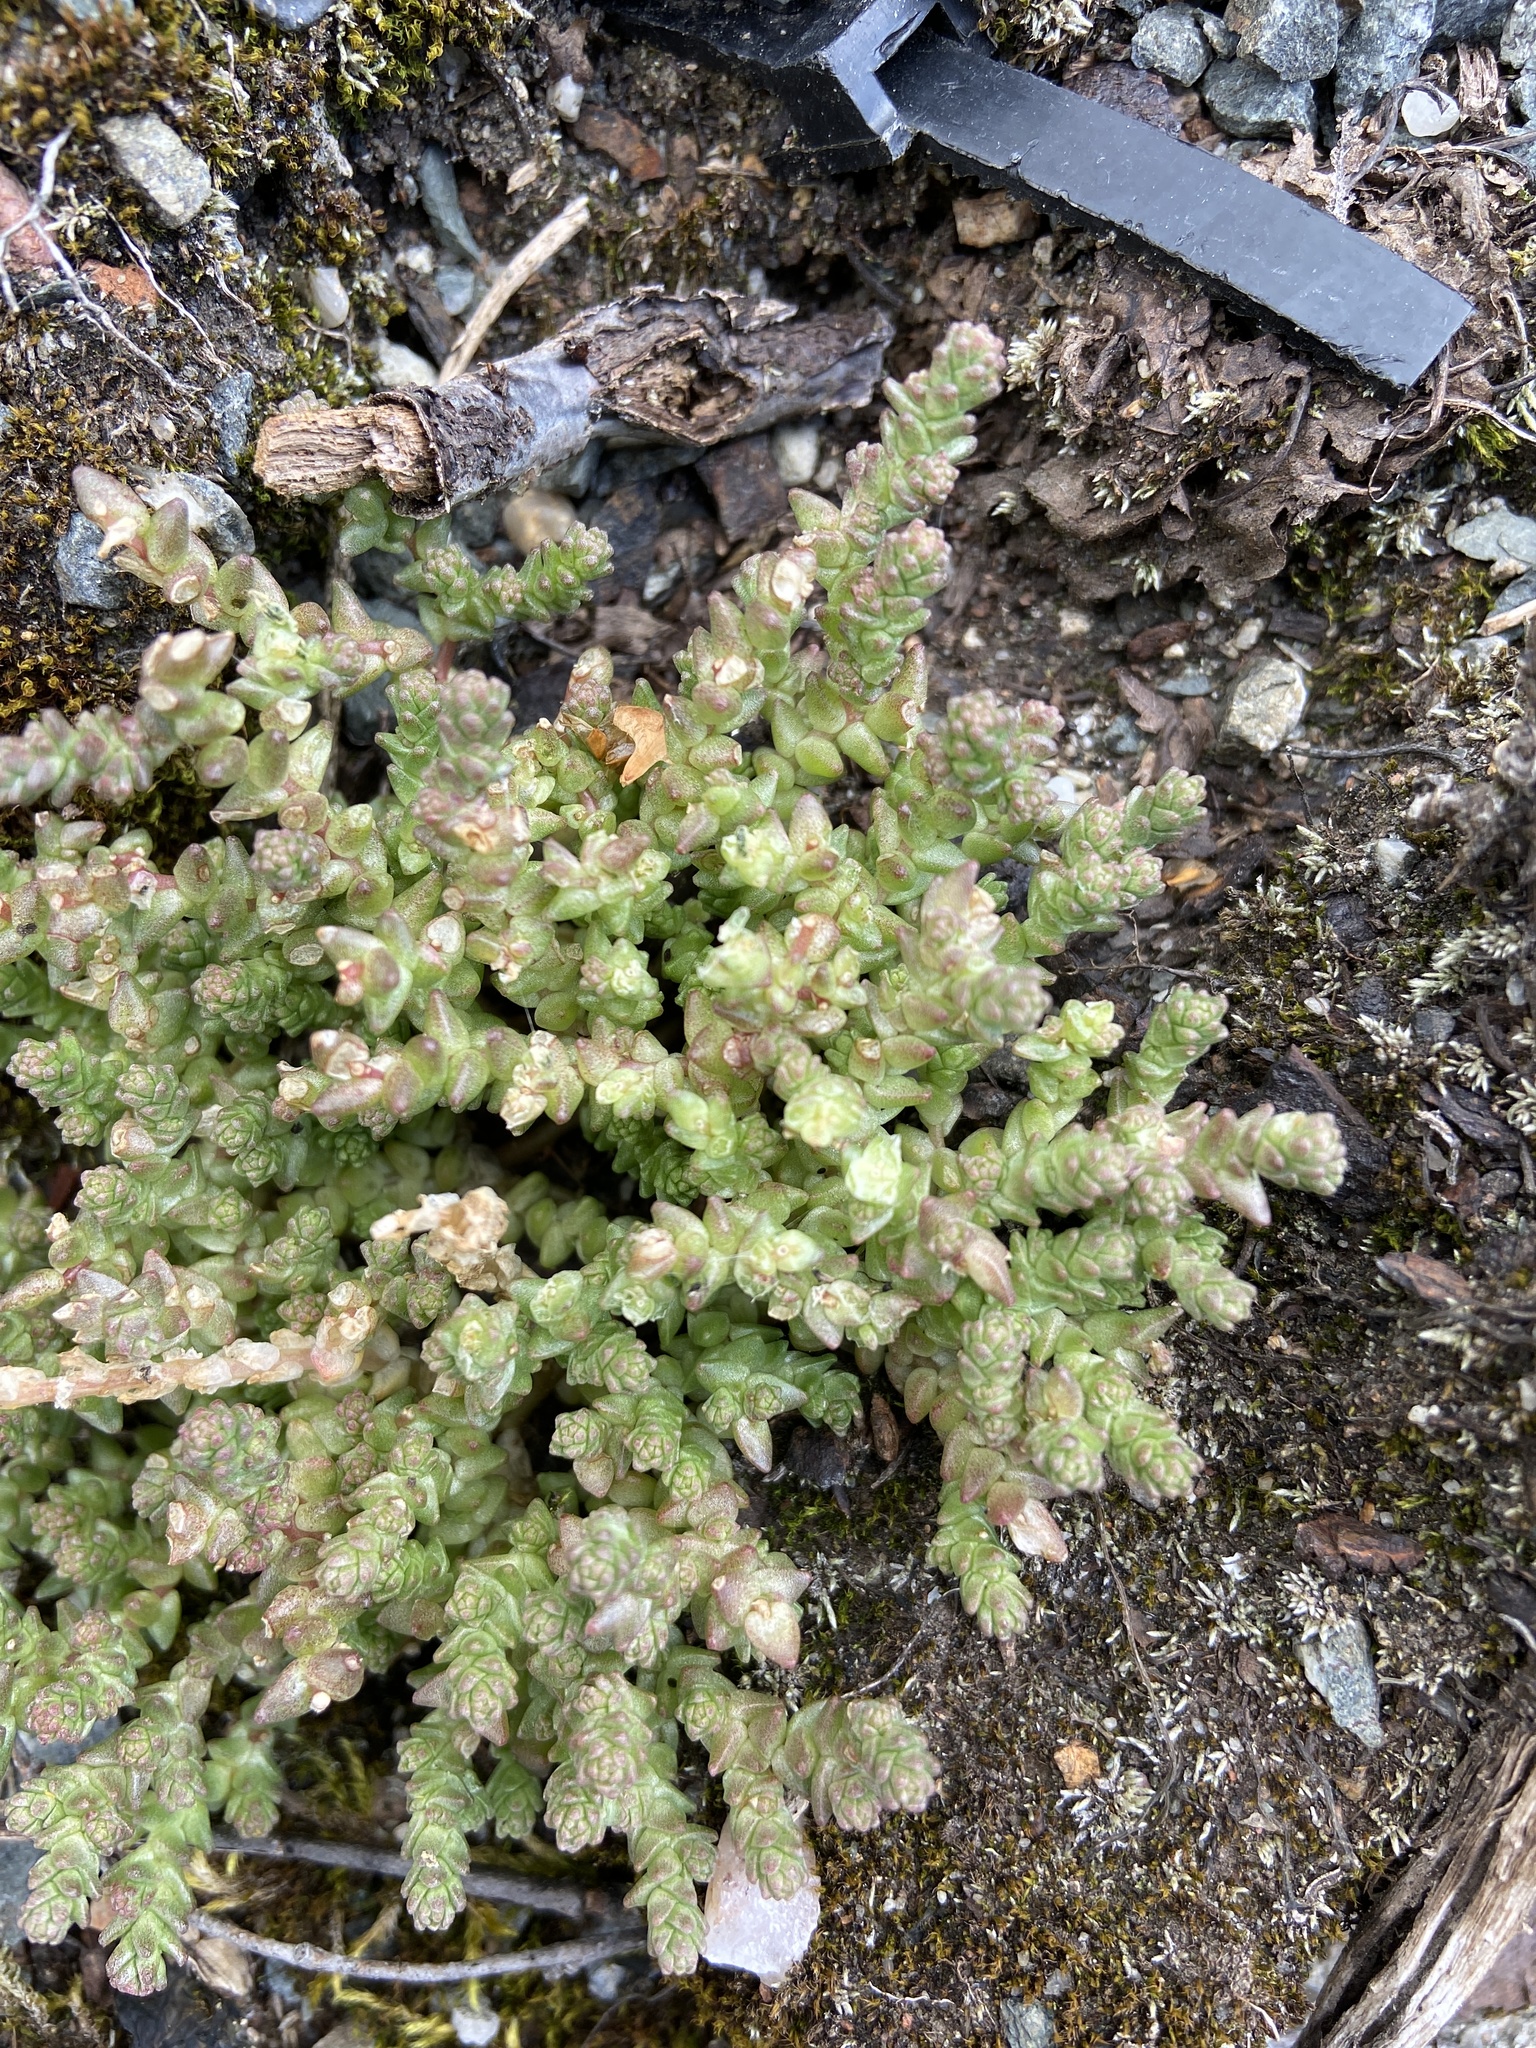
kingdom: Plantae
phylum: Tracheophyta
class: Magnoliopsida
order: Saxifragales
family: Crassulaceae
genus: Sedum
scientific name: Sedum acre
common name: Biting stonecrop
